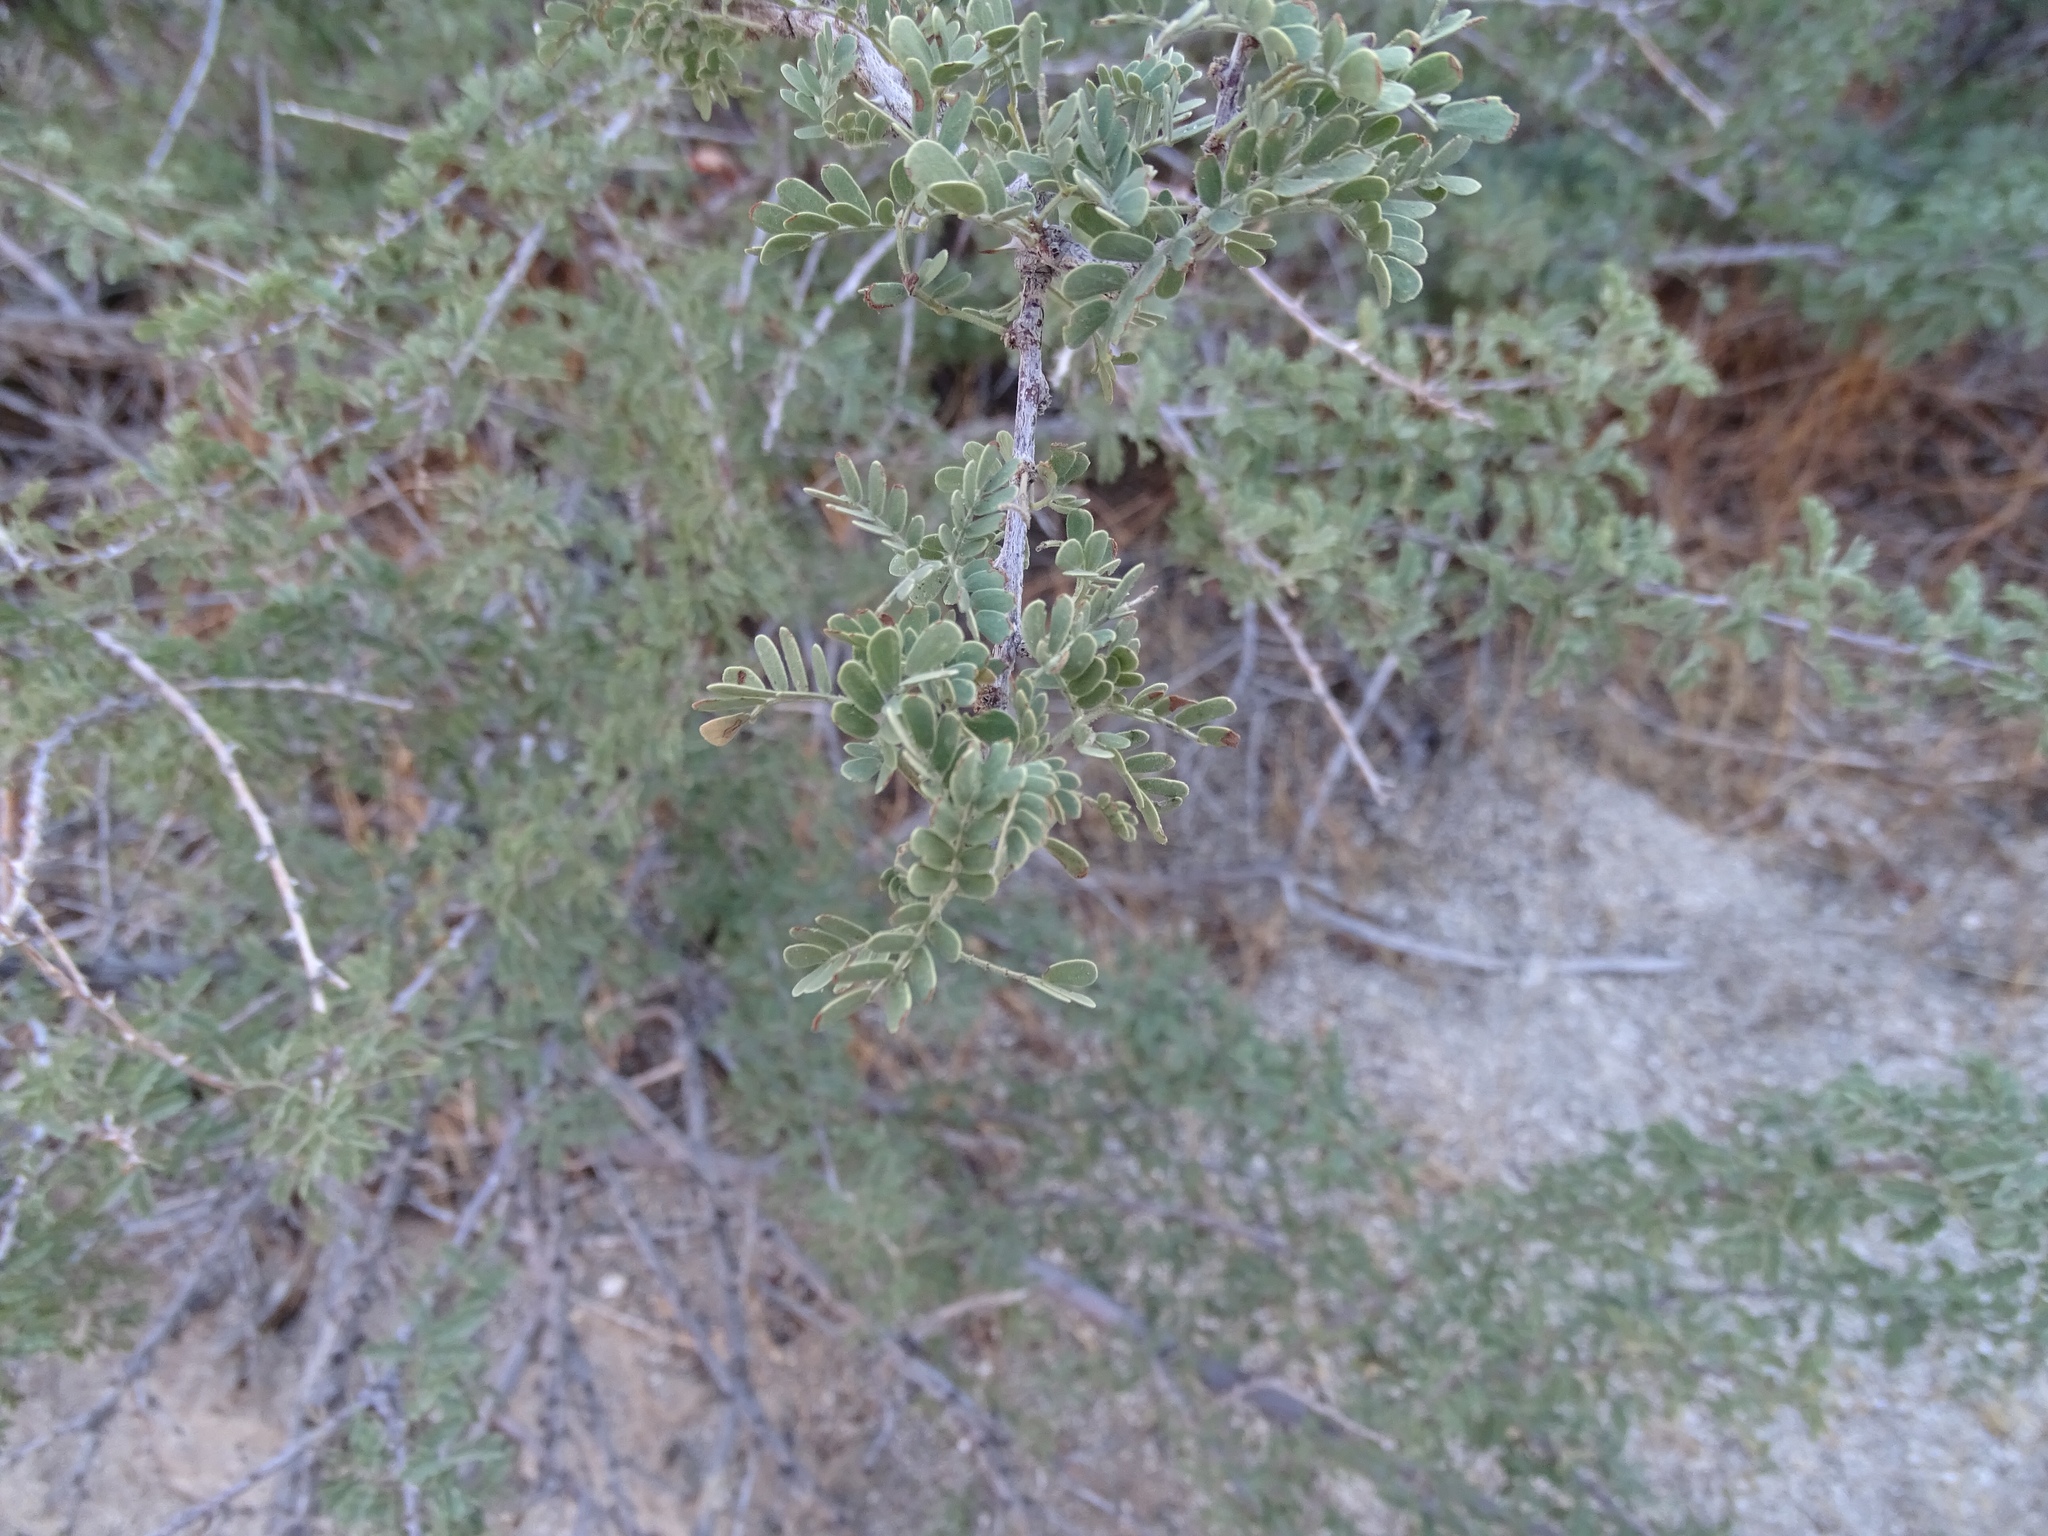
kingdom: Plantae
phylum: Tracheophyta
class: Magnoliopsida
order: Fabales
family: Fabaceae
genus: Senegalia
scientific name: Senegalia greggii
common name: Texas-mimosa
